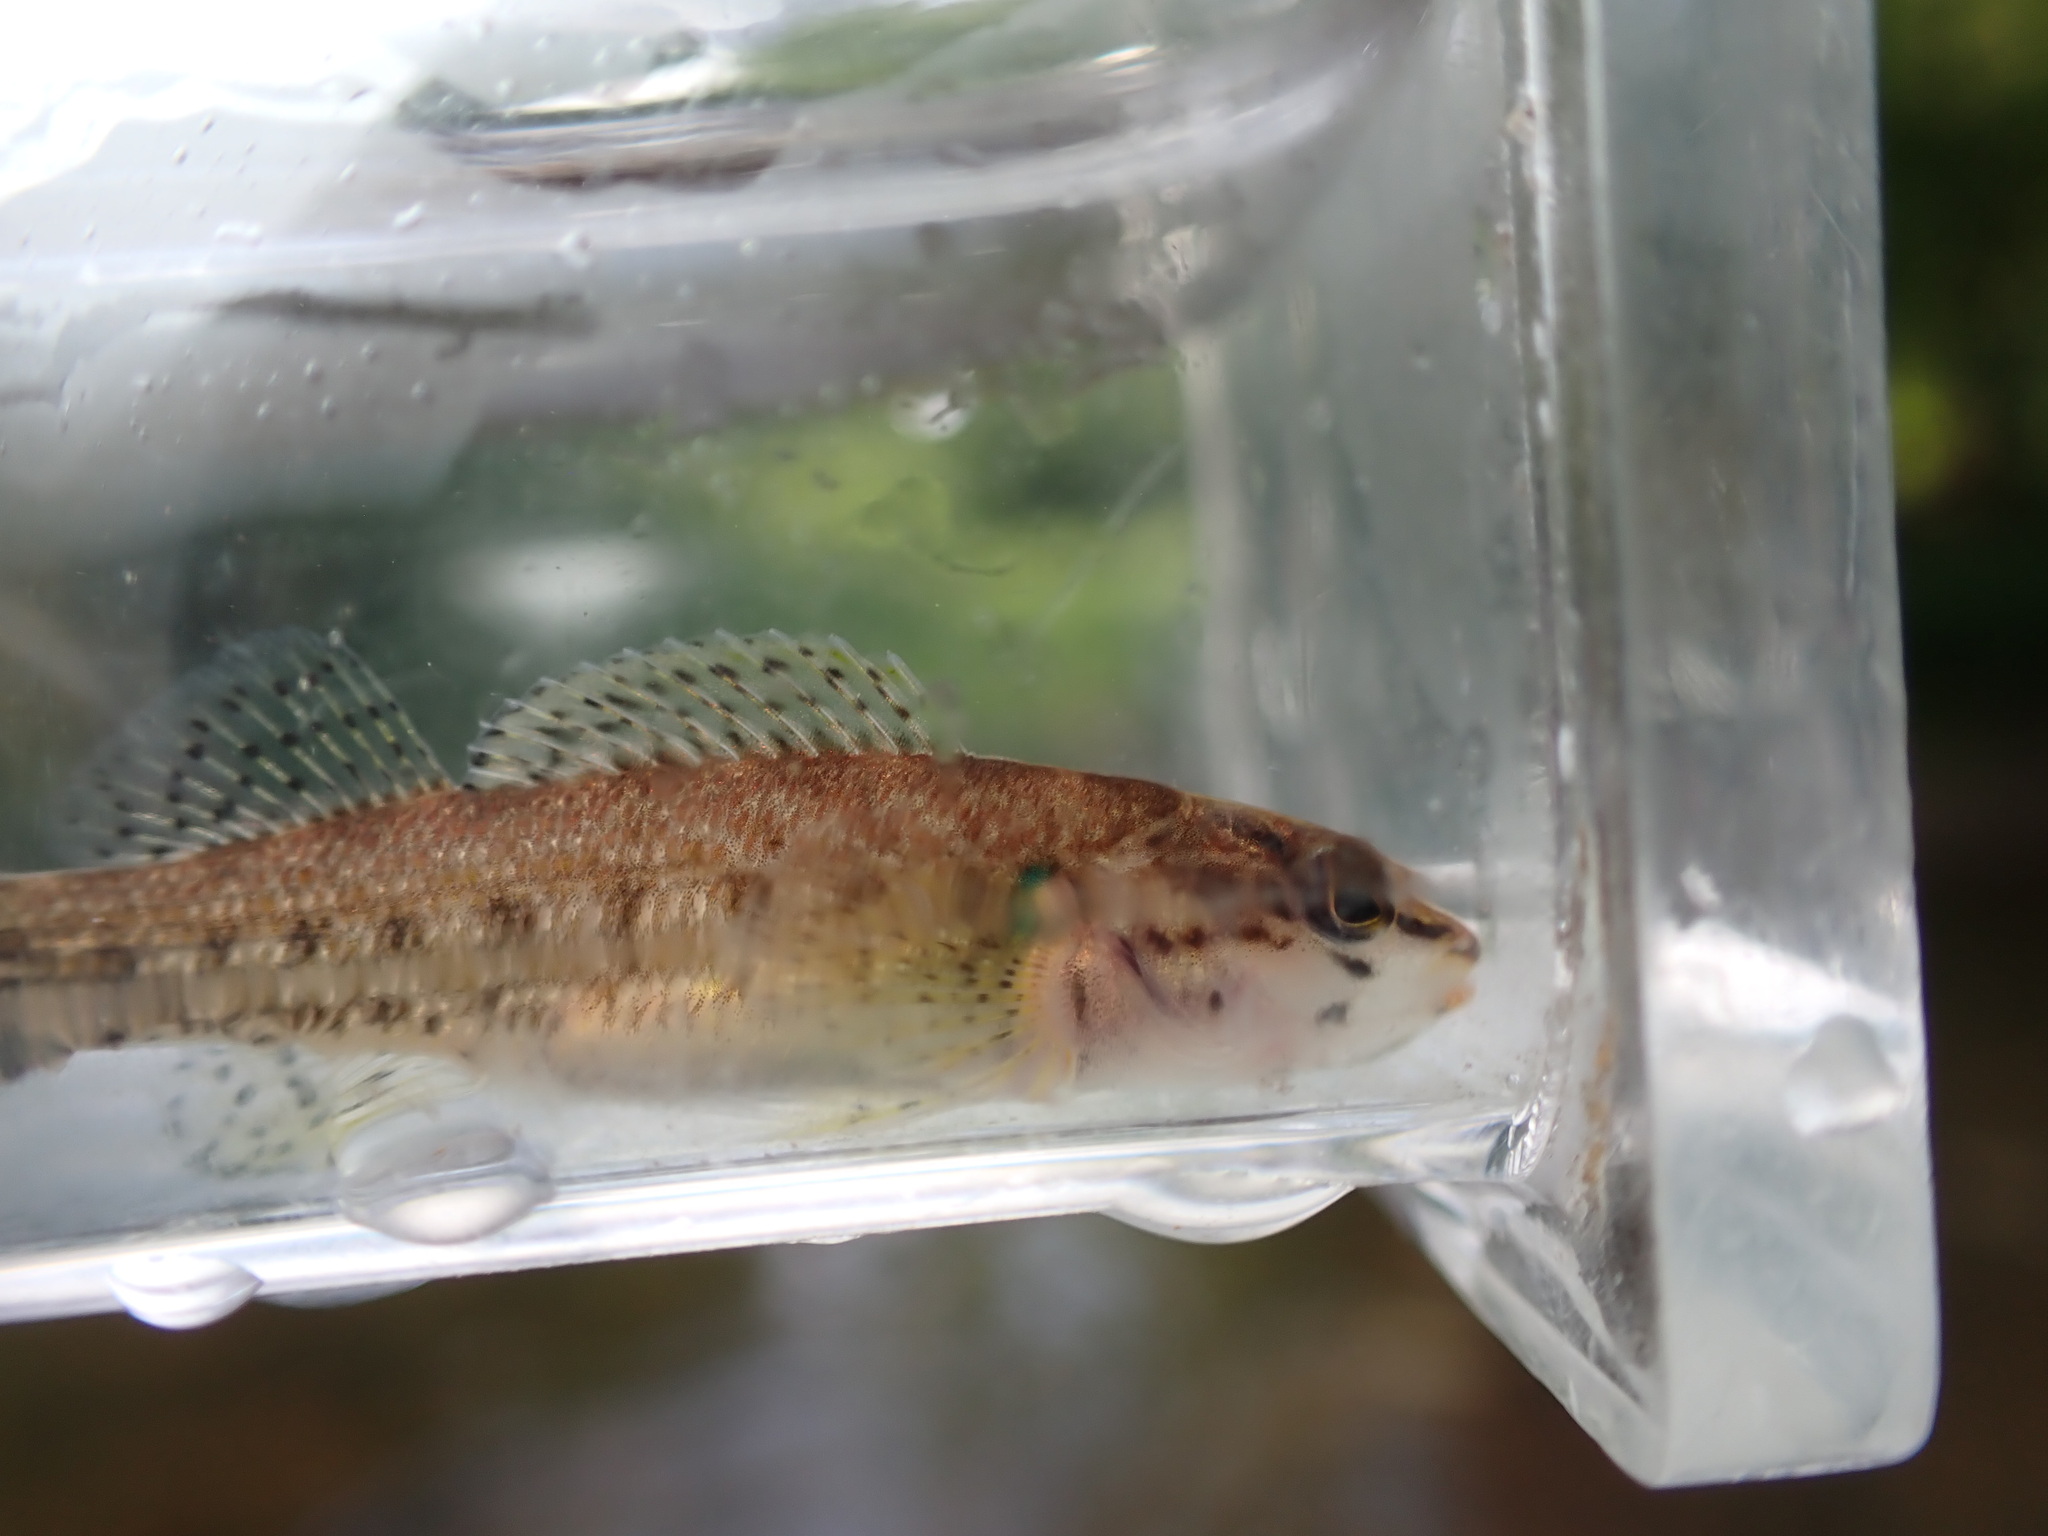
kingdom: Animalia
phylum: Chordata
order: Perciformes
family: Percidae
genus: Etheostoma
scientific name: Etheostoma rufilineatum
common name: Redline darter
